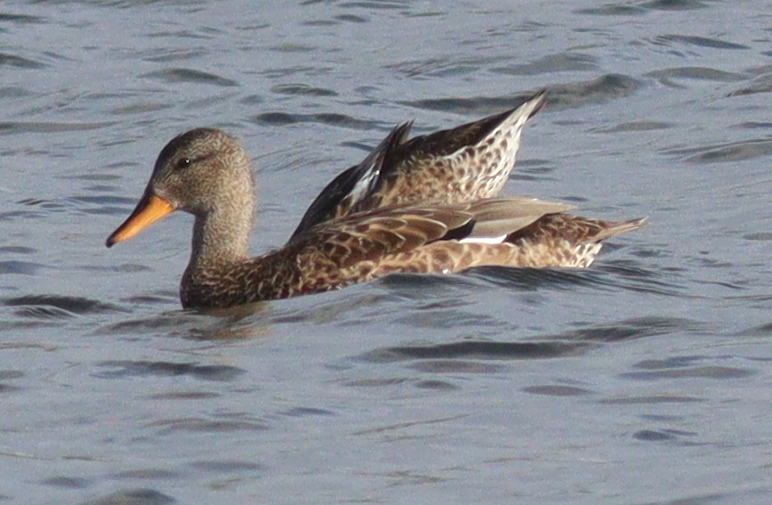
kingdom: Animalia
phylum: Chordata
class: Aves
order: Anseriformes
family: Anatidae
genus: Mareca
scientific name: Mareca strepera
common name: Gadwall
